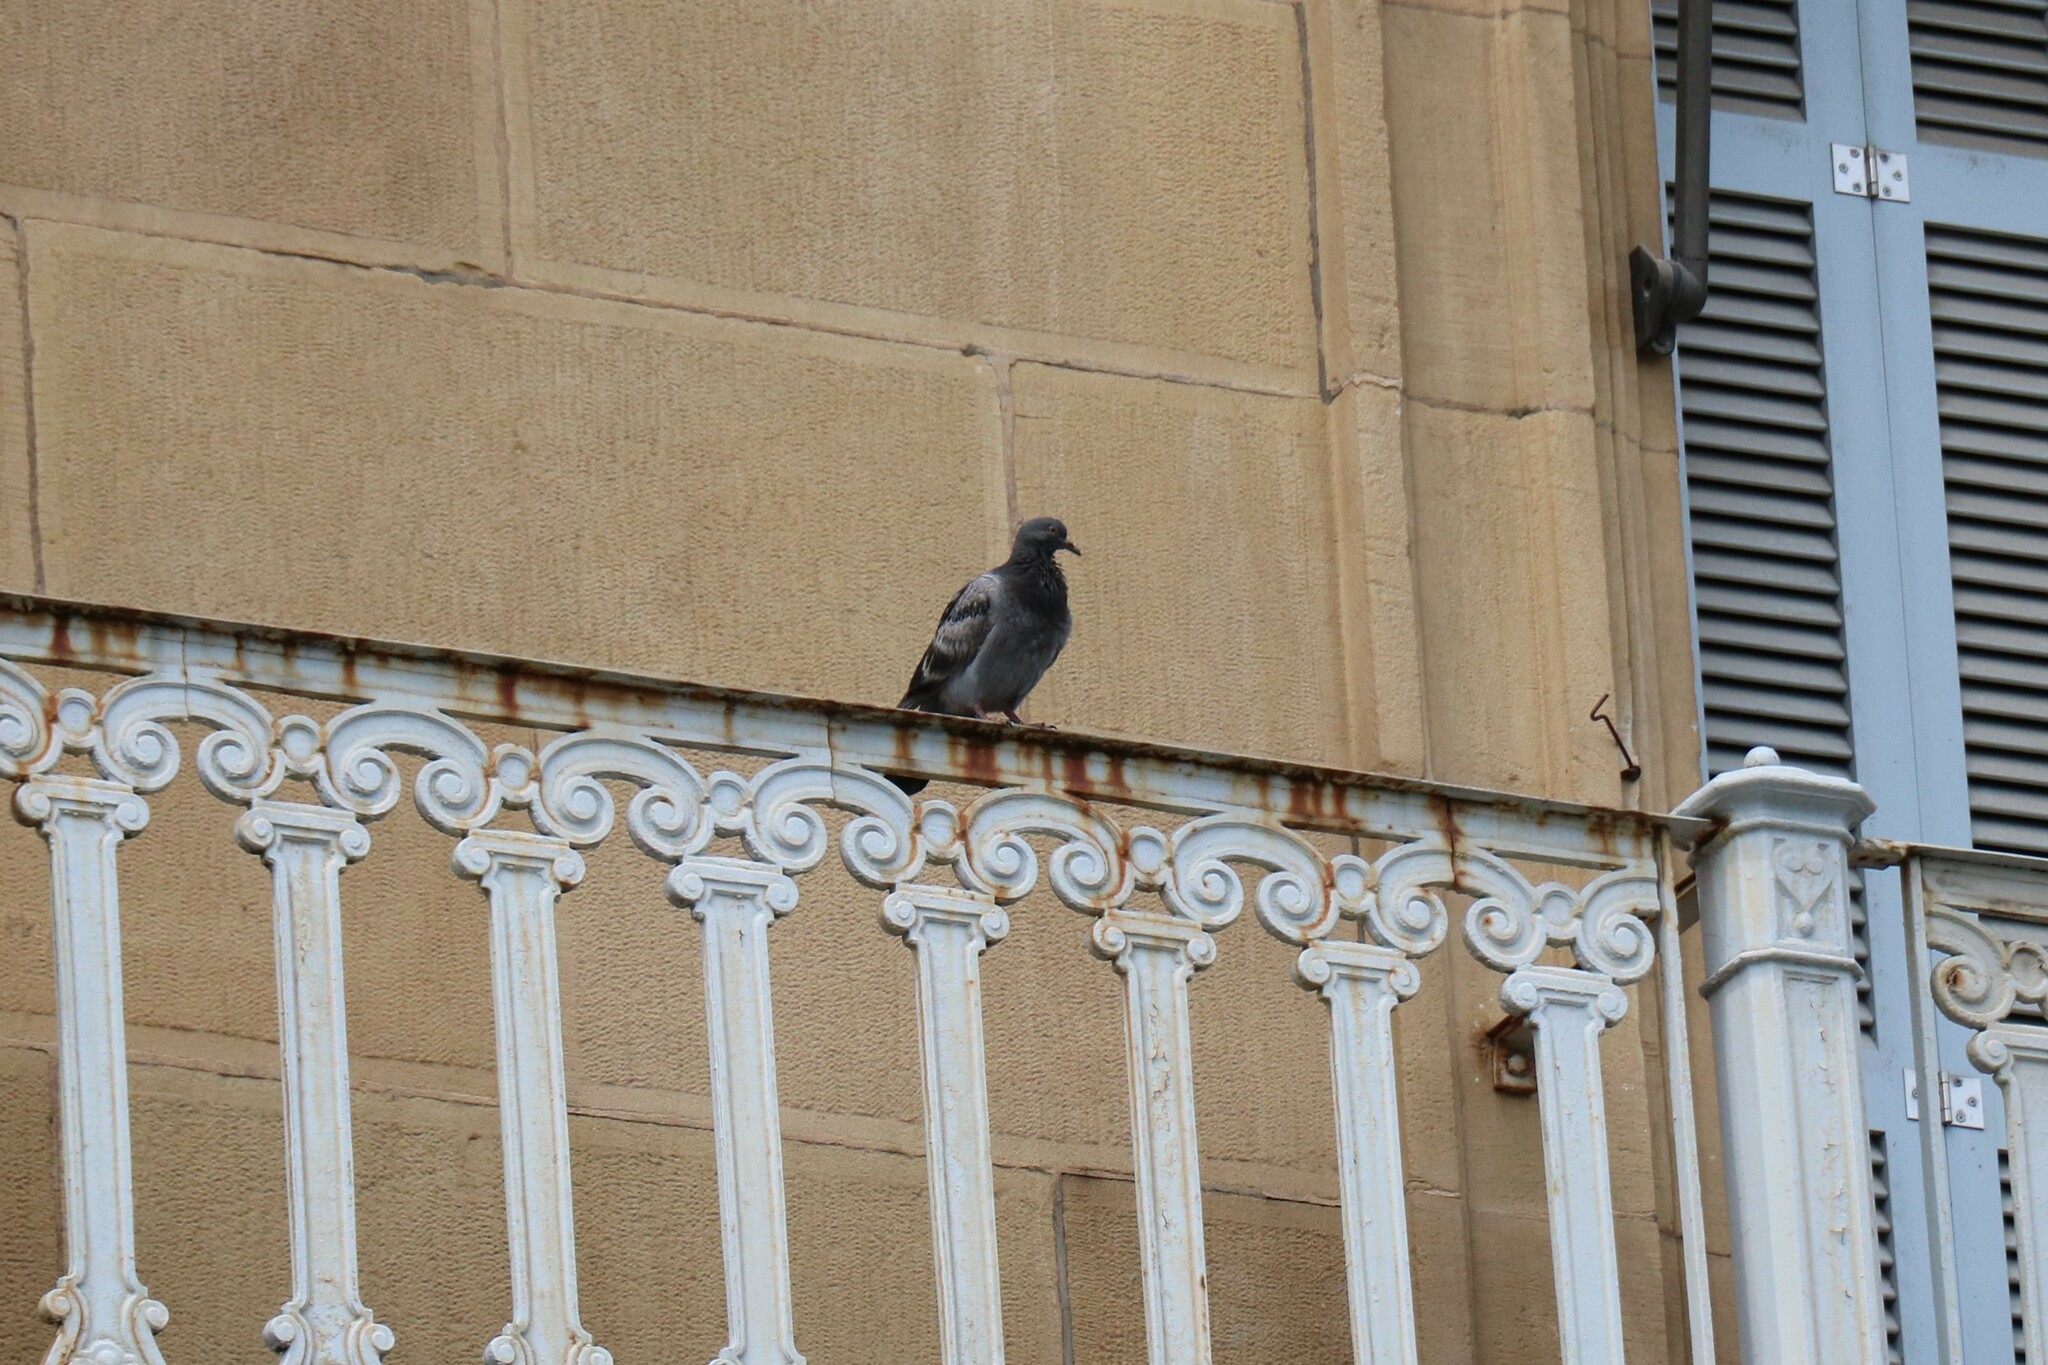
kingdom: Animalia
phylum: Chordata
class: Aves
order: Columbiformes
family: Columbidae
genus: Columba
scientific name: Columba livia
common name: Rock pigeon
